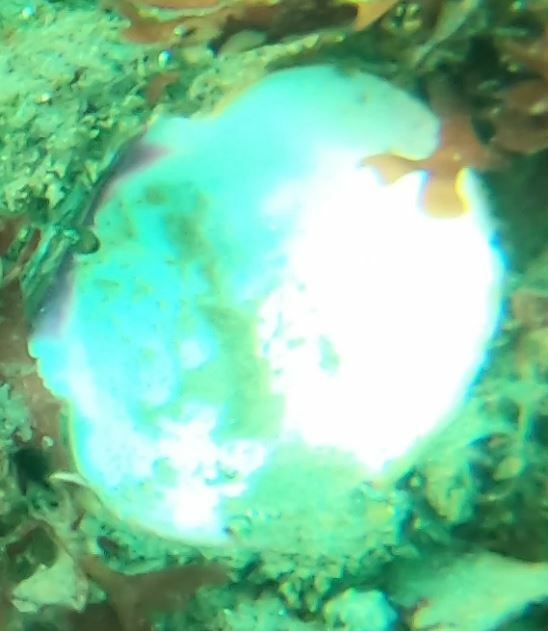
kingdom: Animalia
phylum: Mollusca
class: Bivalvia
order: Pectinida
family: Pectinidae
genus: Crassadoma
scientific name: Crassadoma gigantea
